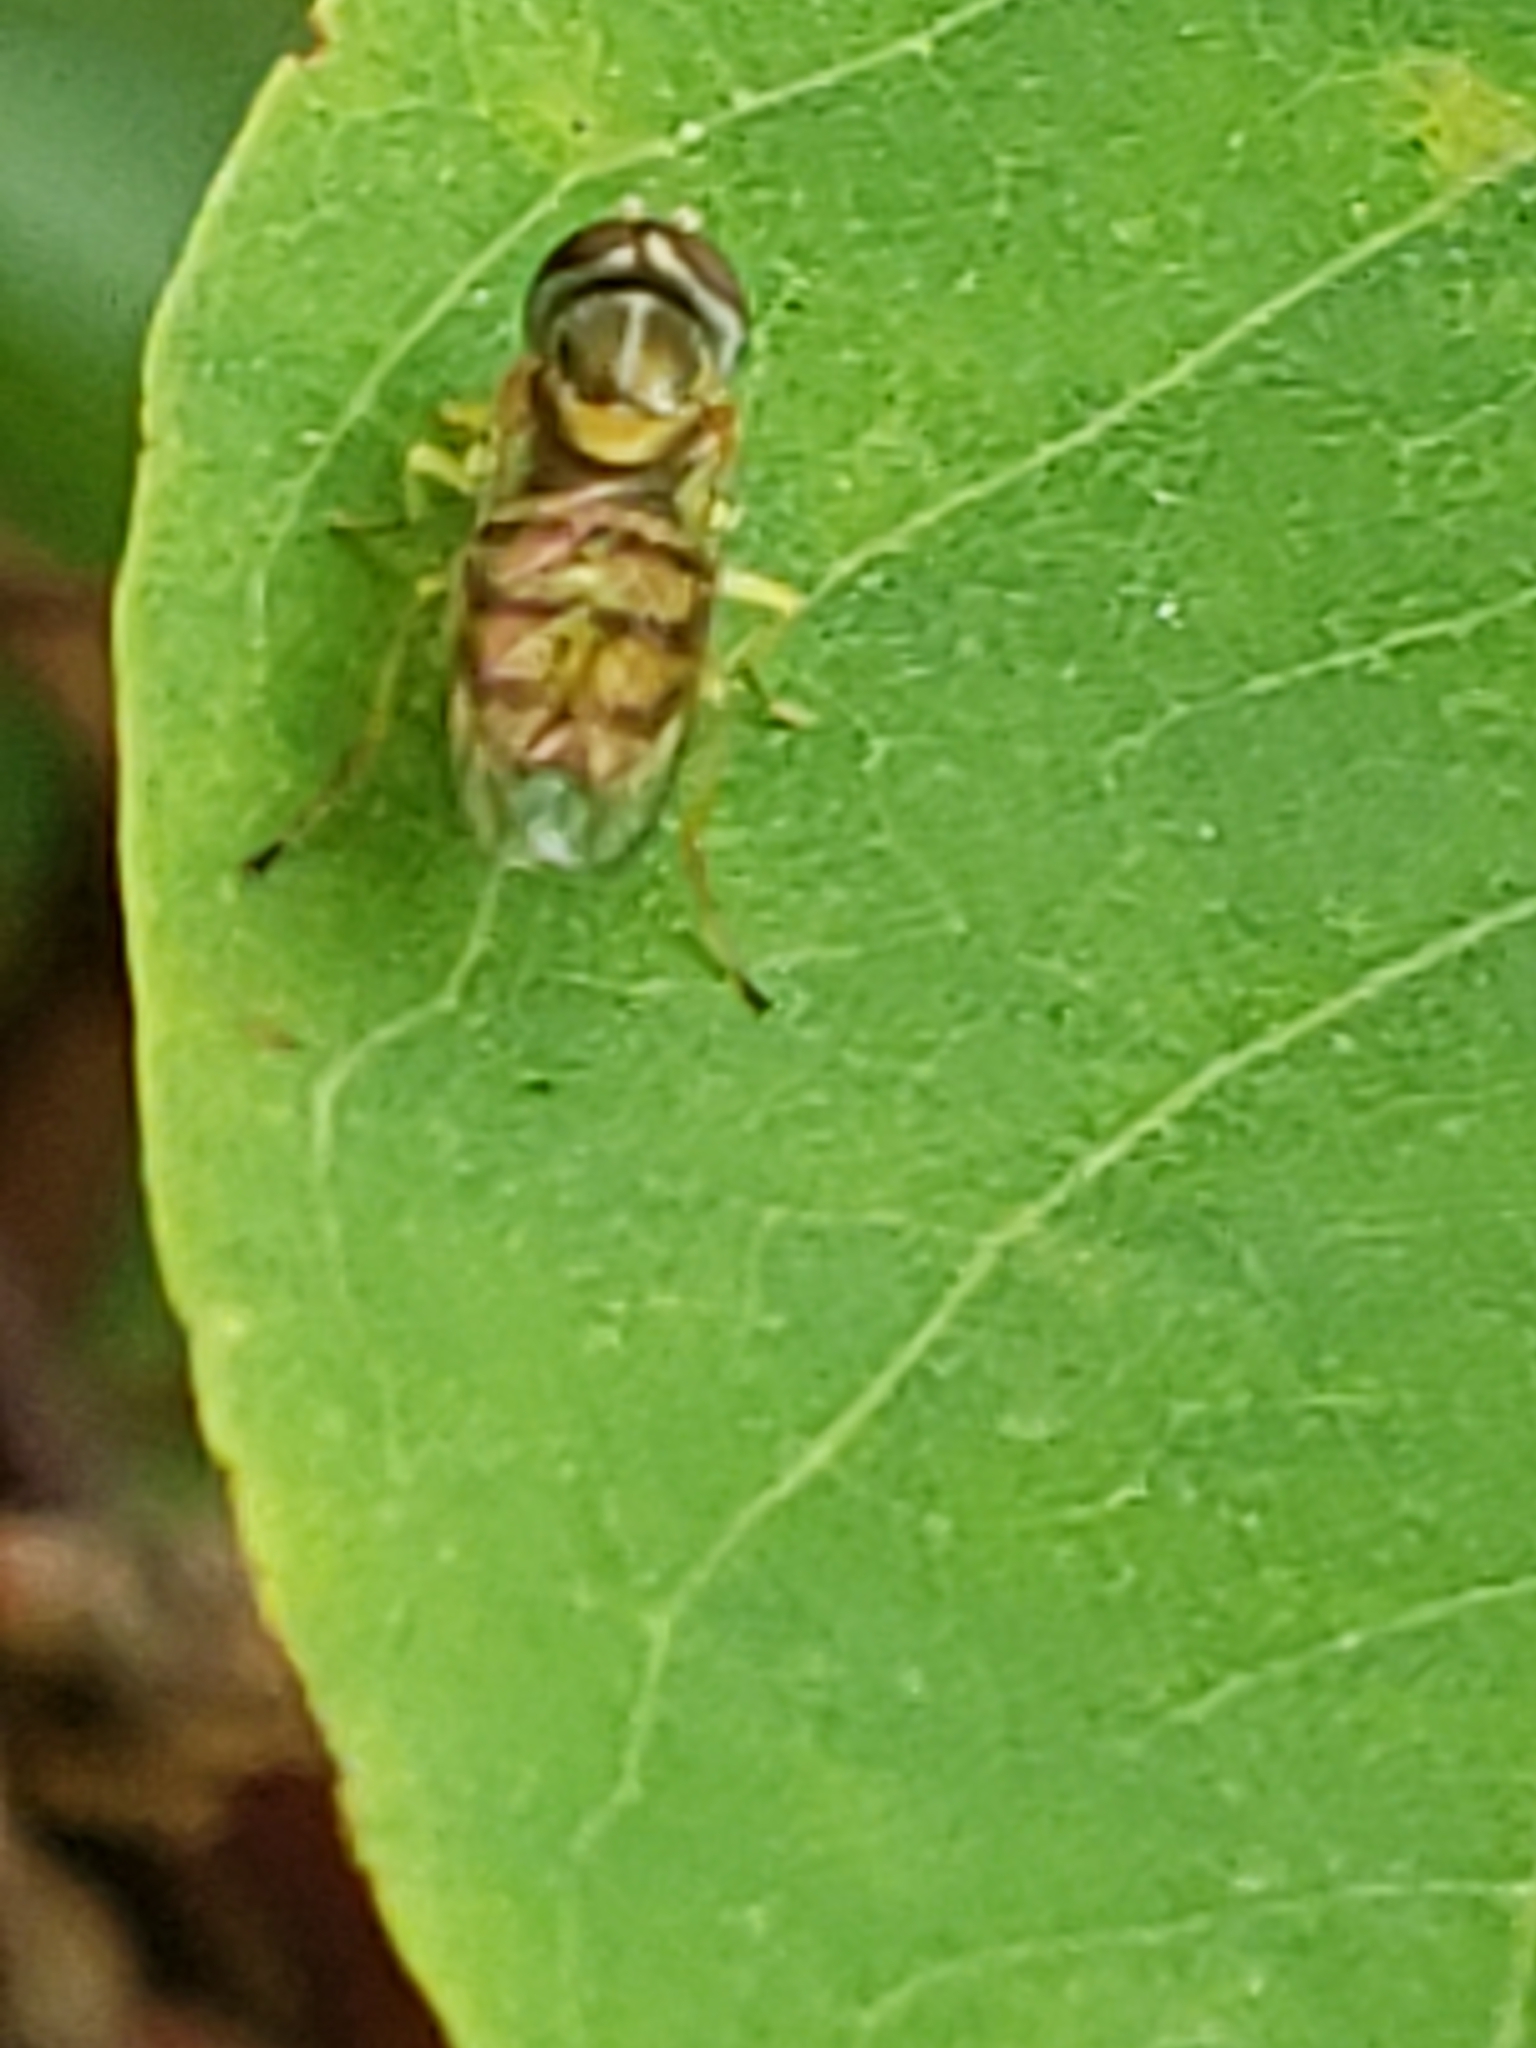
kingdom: Animalia
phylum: Arthropoda
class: Insecta
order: Diptera
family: Syrphidae
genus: Toxomerus
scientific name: Toxomerus marginatus
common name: Syrphid fly
